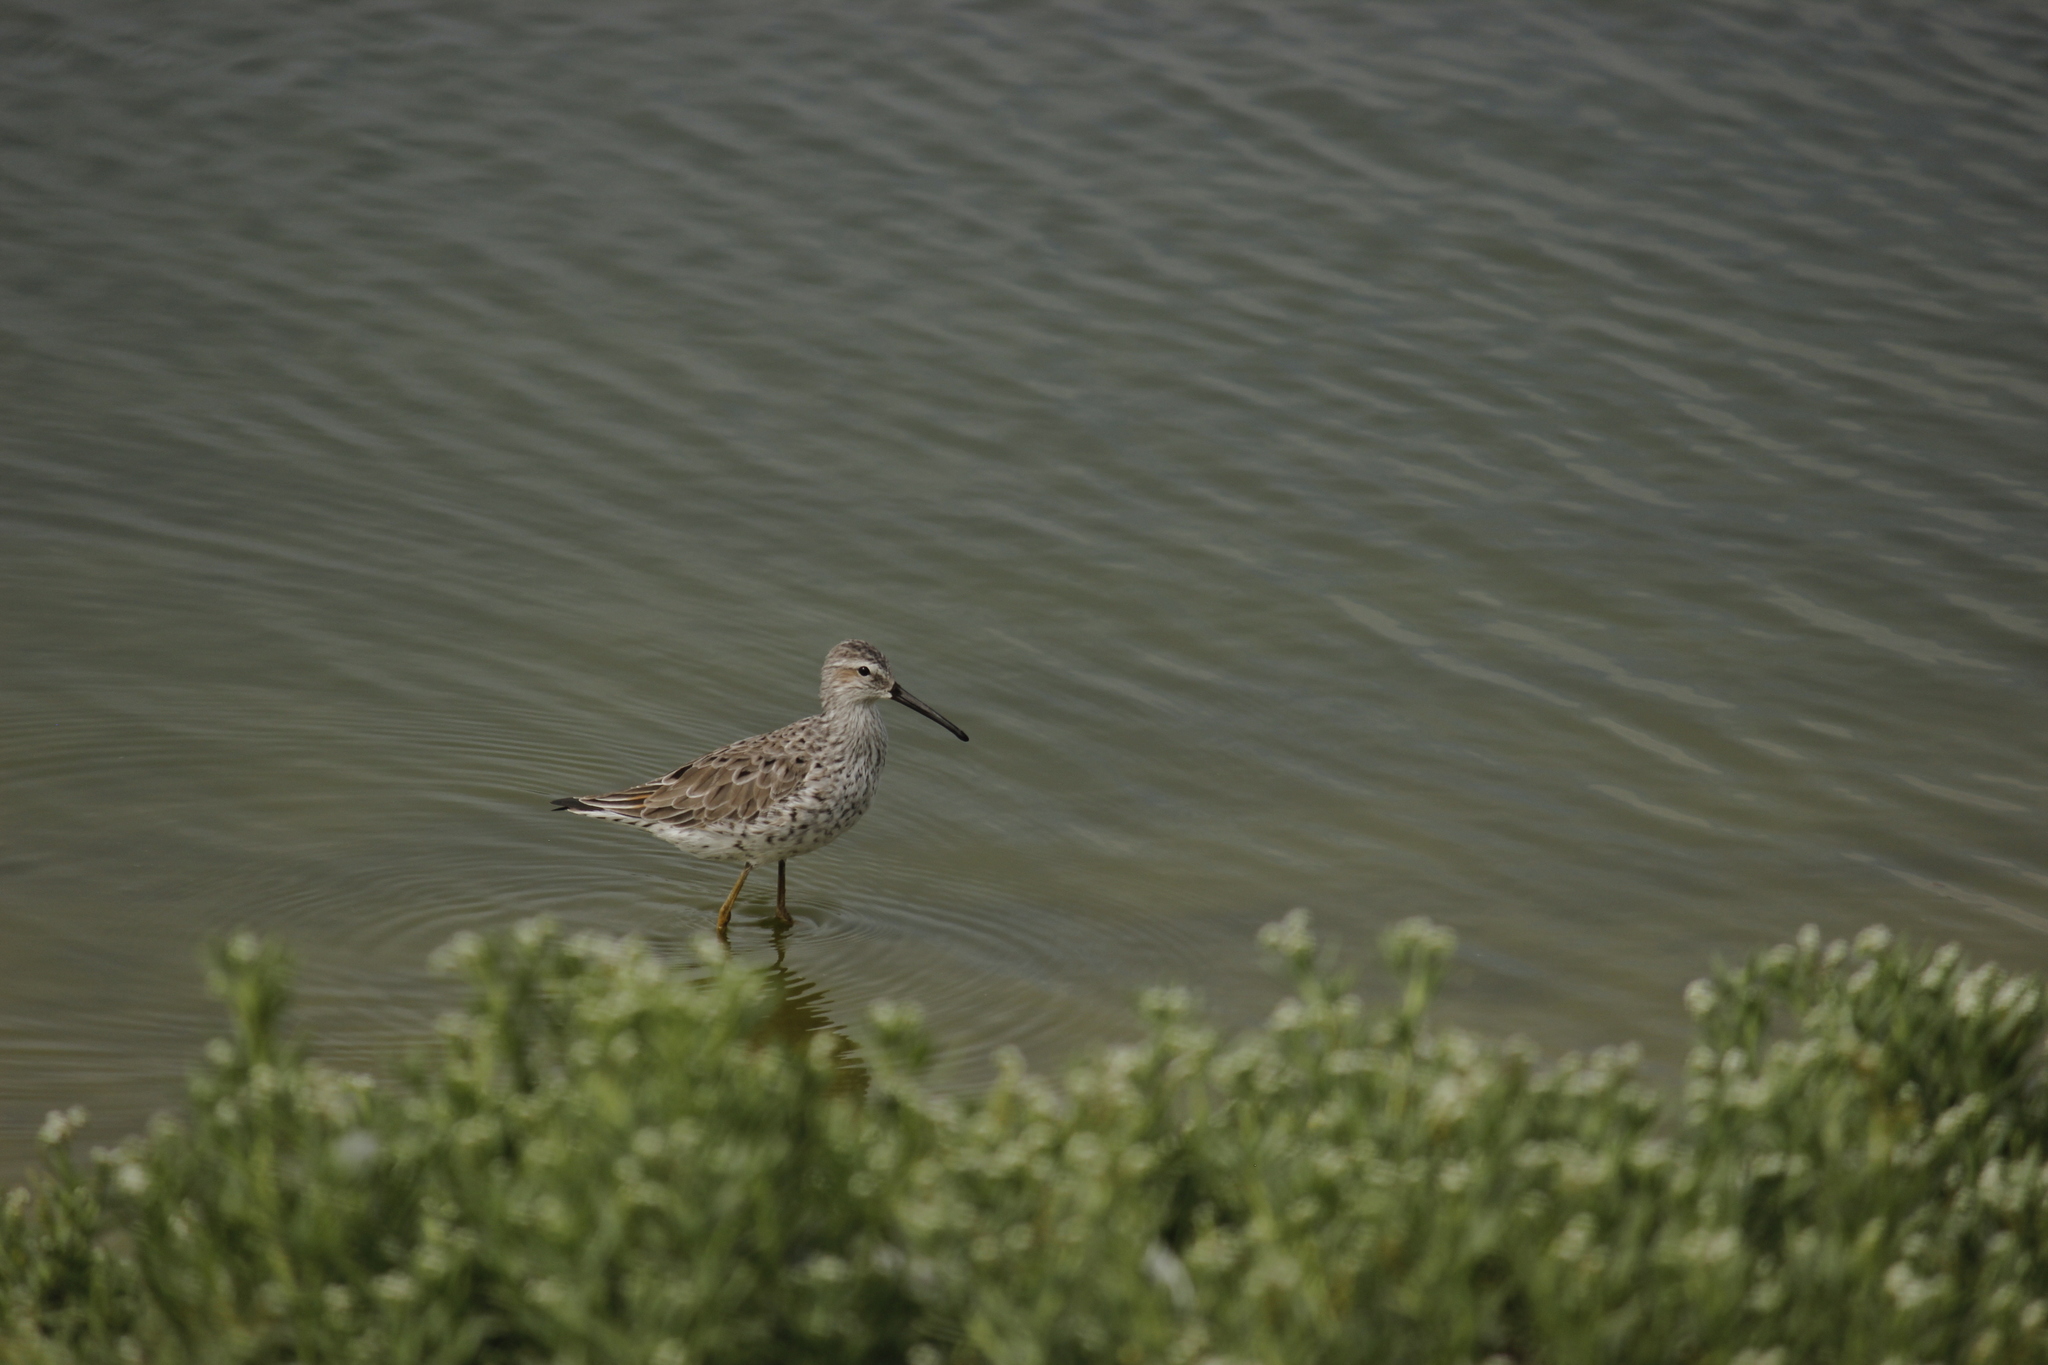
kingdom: Animalia
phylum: Chordata
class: Aves
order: Charadriiformes
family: Scolopacidae
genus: Calidris
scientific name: Calidris himantopus
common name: Stilt sandpiper
